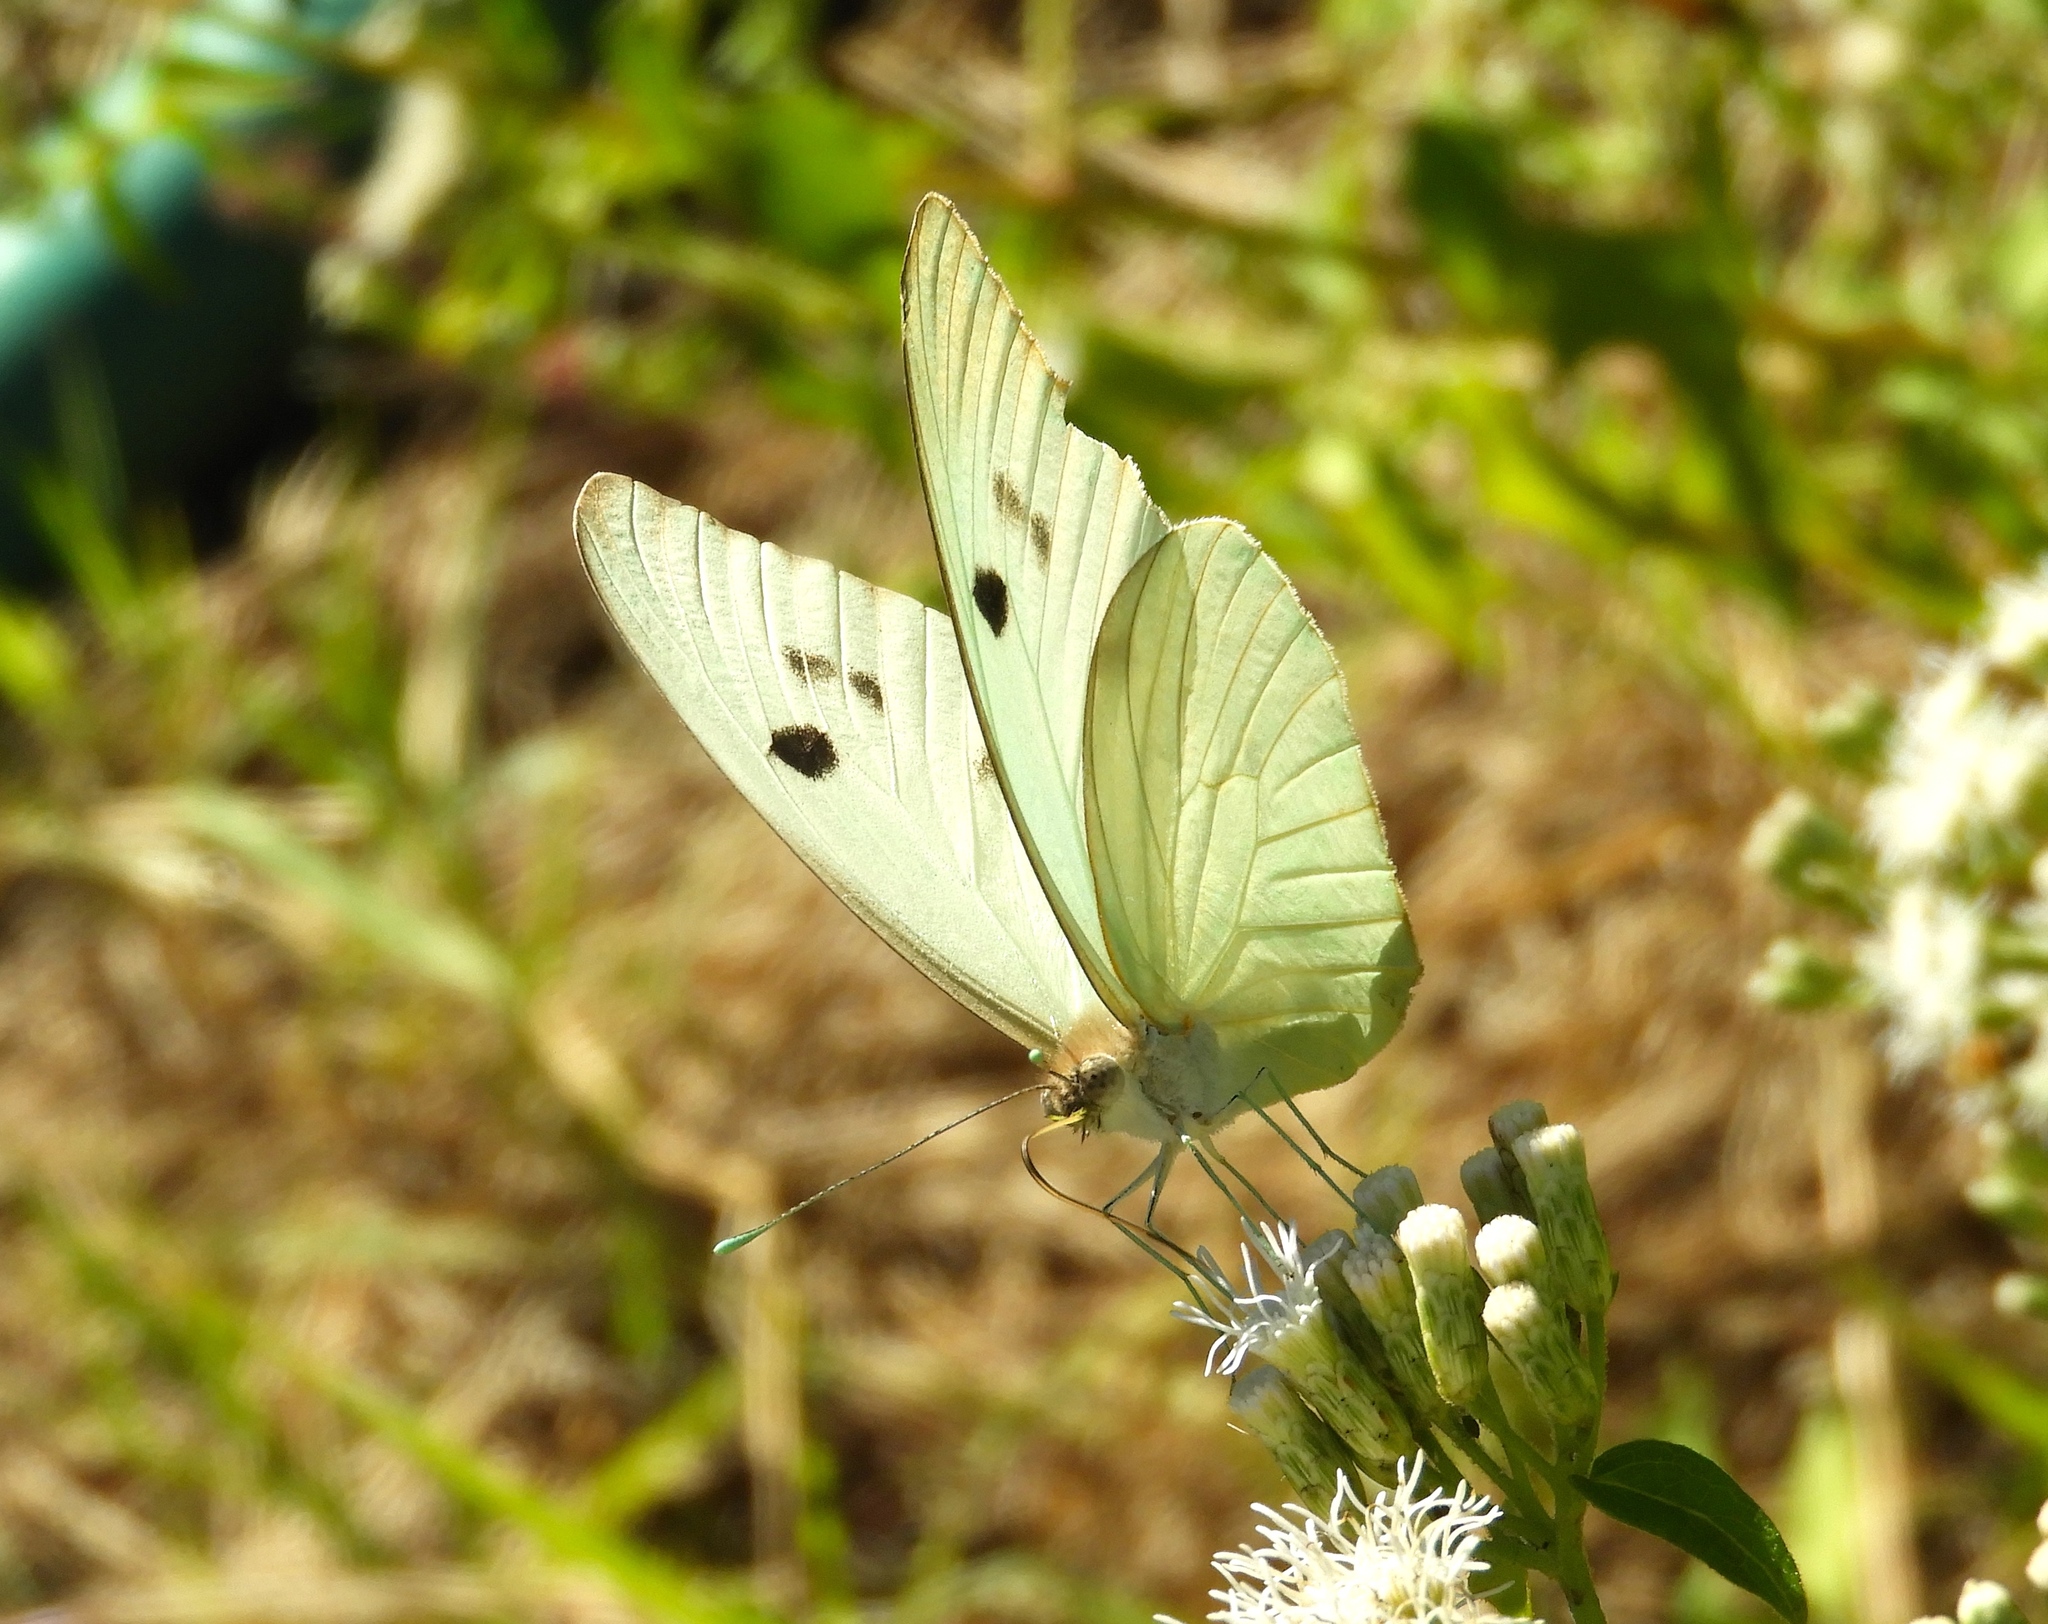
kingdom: Animalia
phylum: Arthropoda
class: Insecta
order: Lepidoptera
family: Pieridae
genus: Ganyra
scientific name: Ganyra josephina
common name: Giant white
